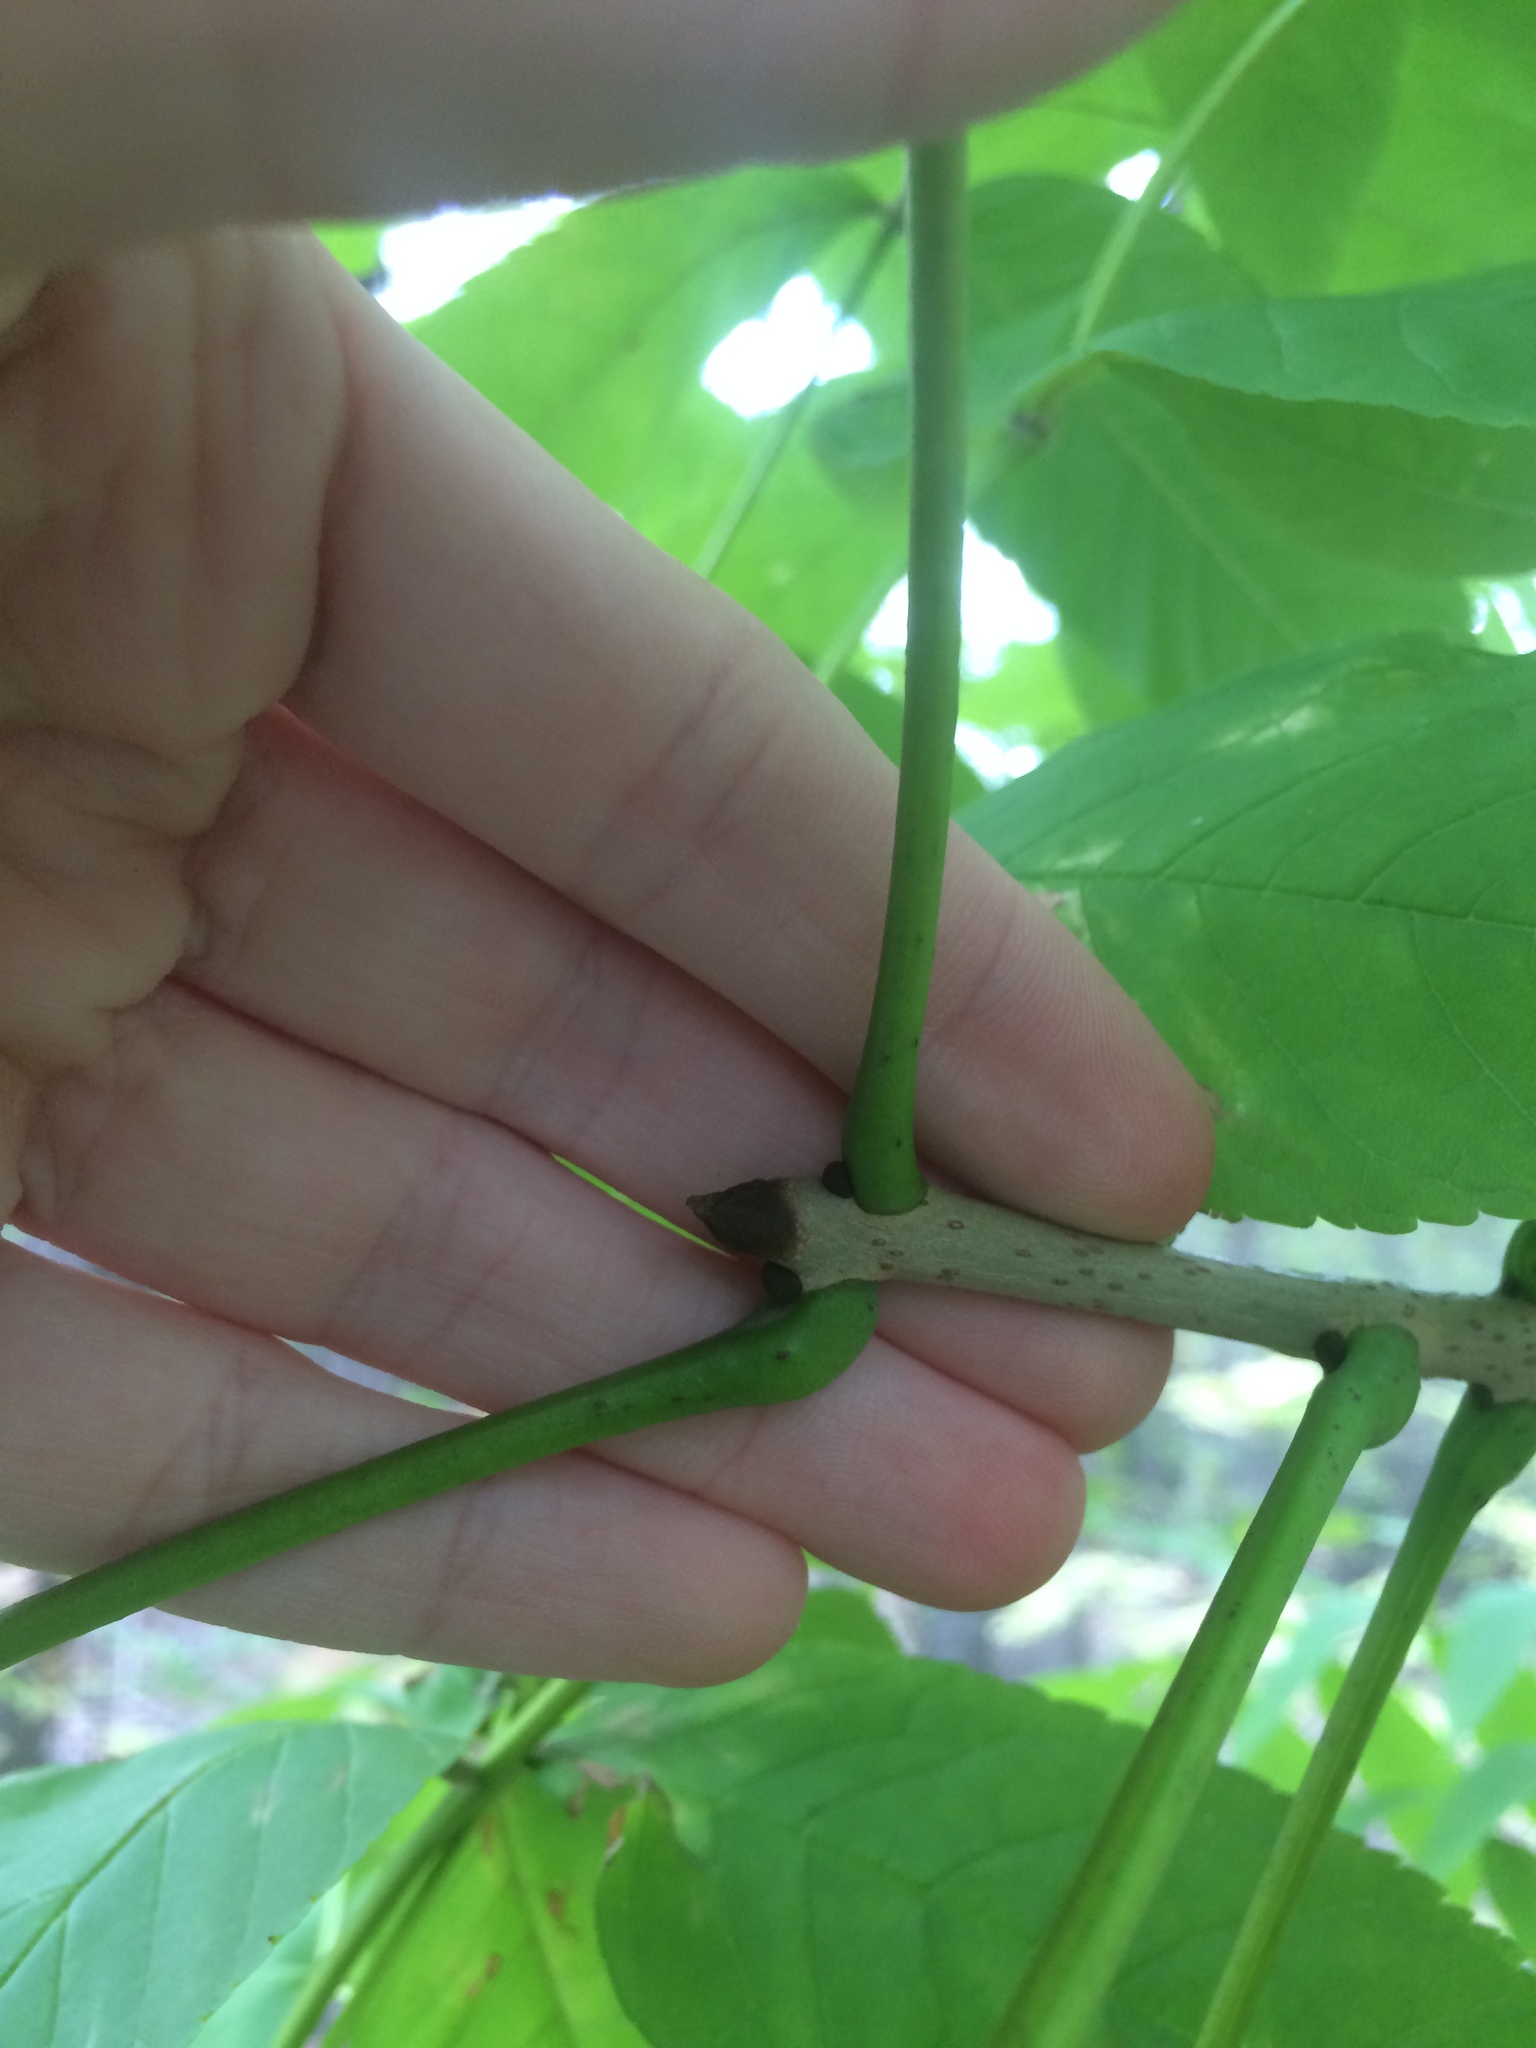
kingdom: Plantae
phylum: Tracheophyta
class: Magnoliopsida
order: Lamiales
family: Oleaceae
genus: Fraxinus
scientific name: Fraxinus nigra
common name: Black ash
